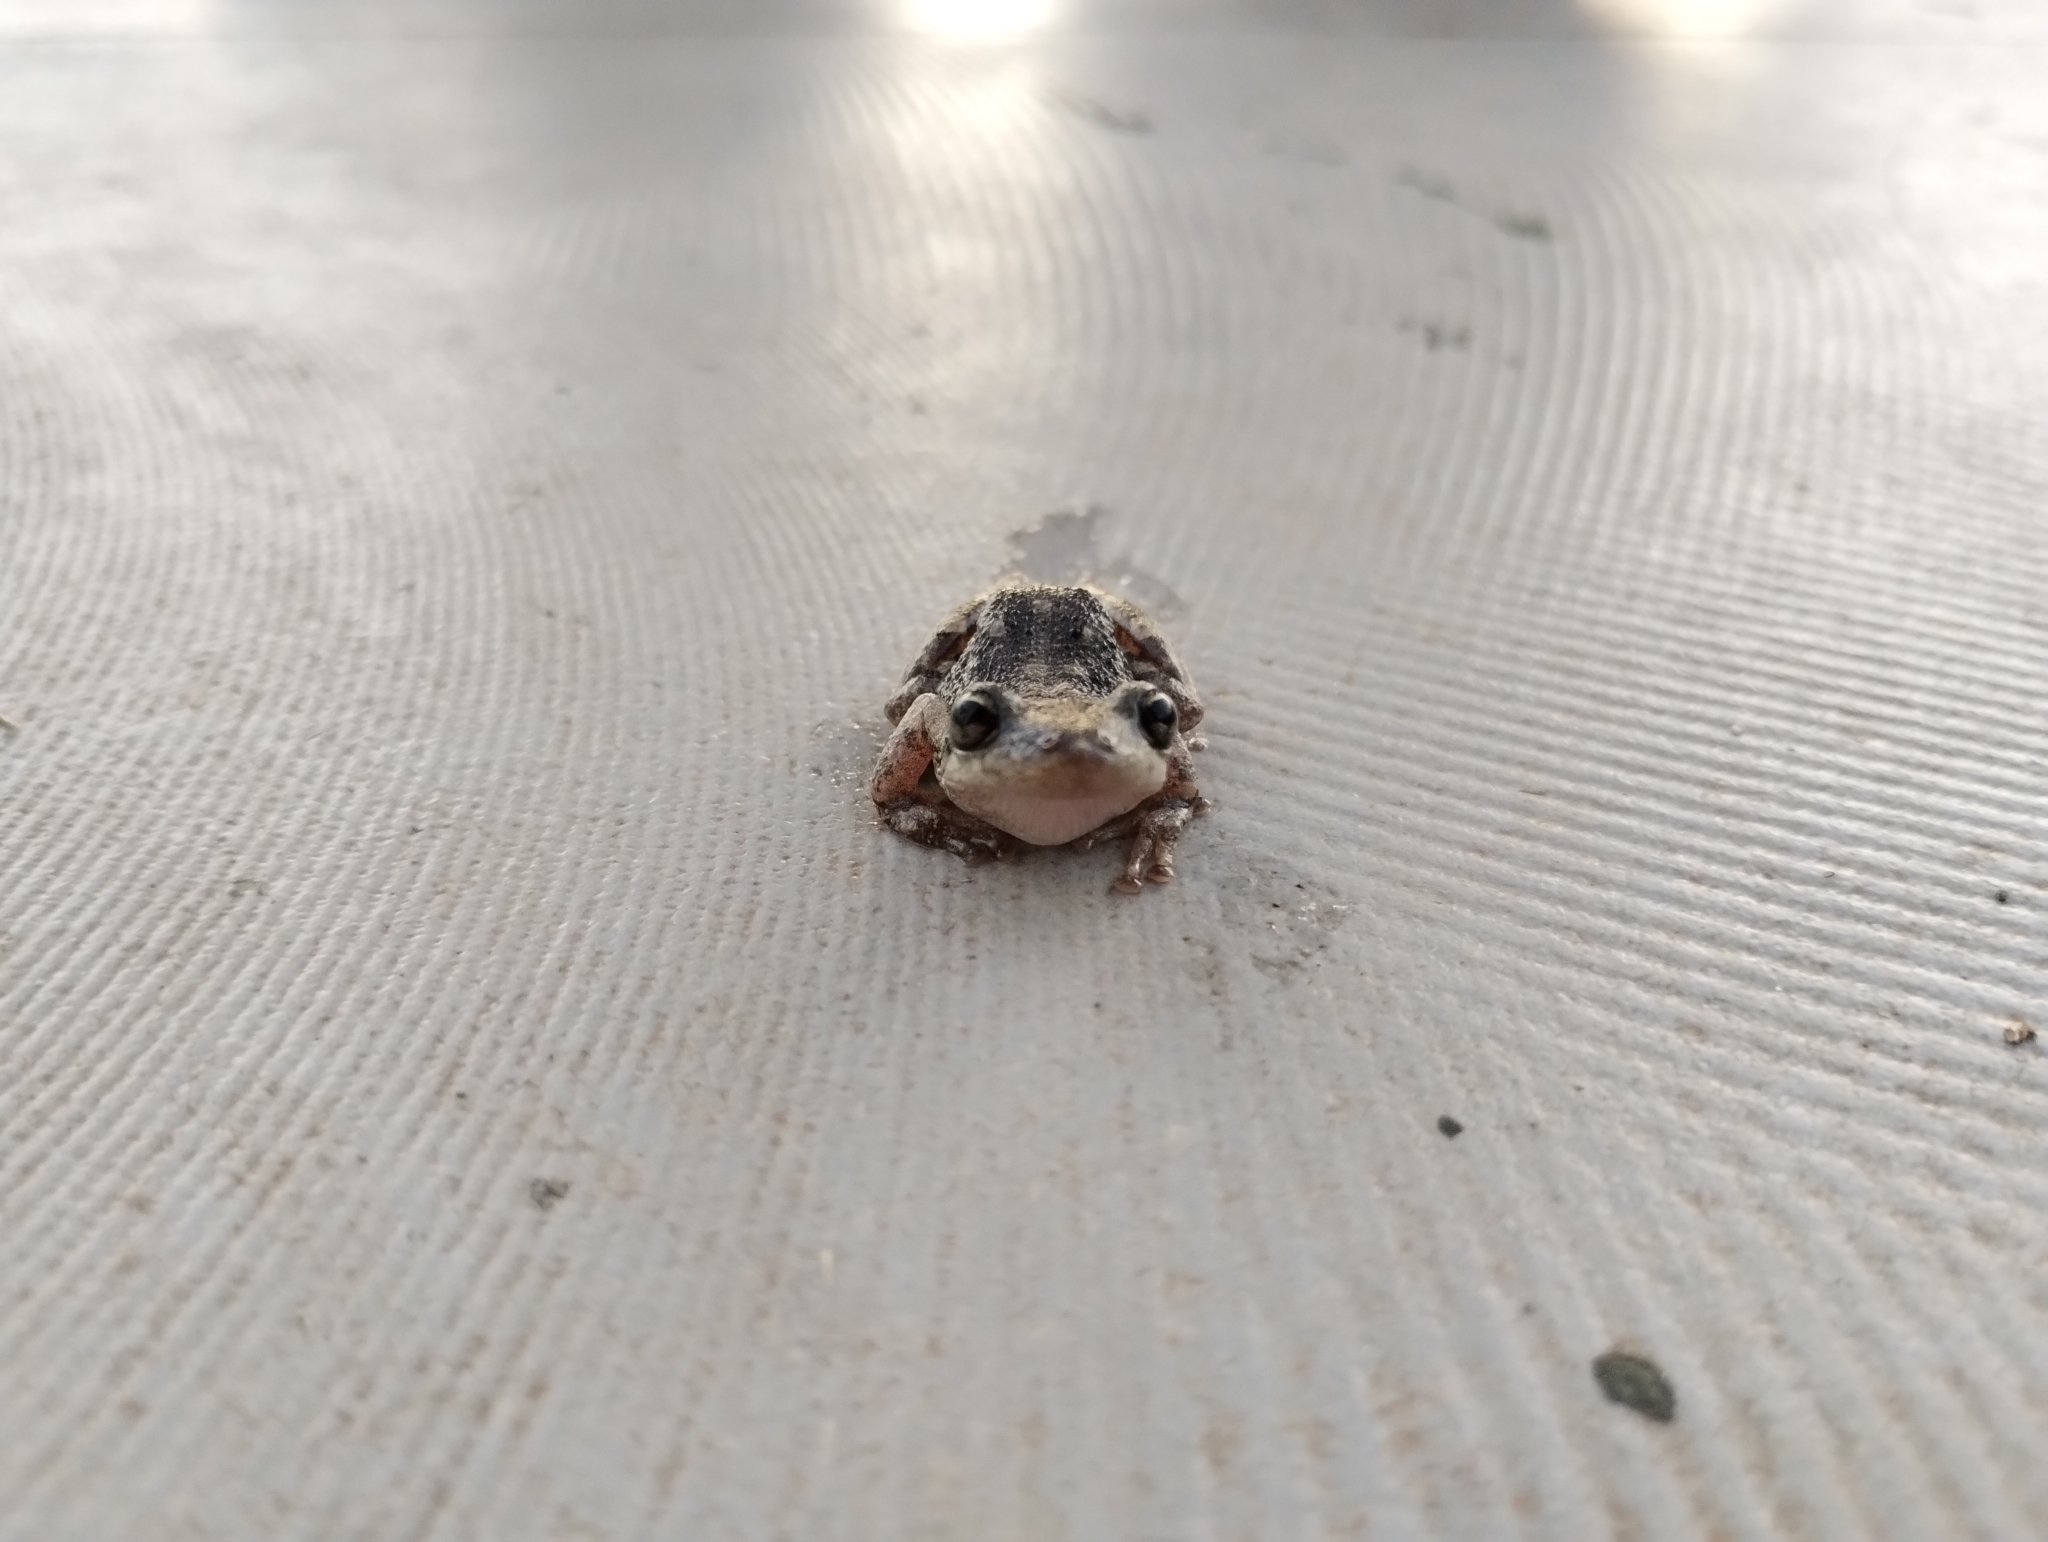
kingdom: Animalia
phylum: Chordata
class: Amphibia
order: Anura
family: Hylidae
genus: Scinax
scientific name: Scinax nasicus
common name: Lesser snouted treefrog
